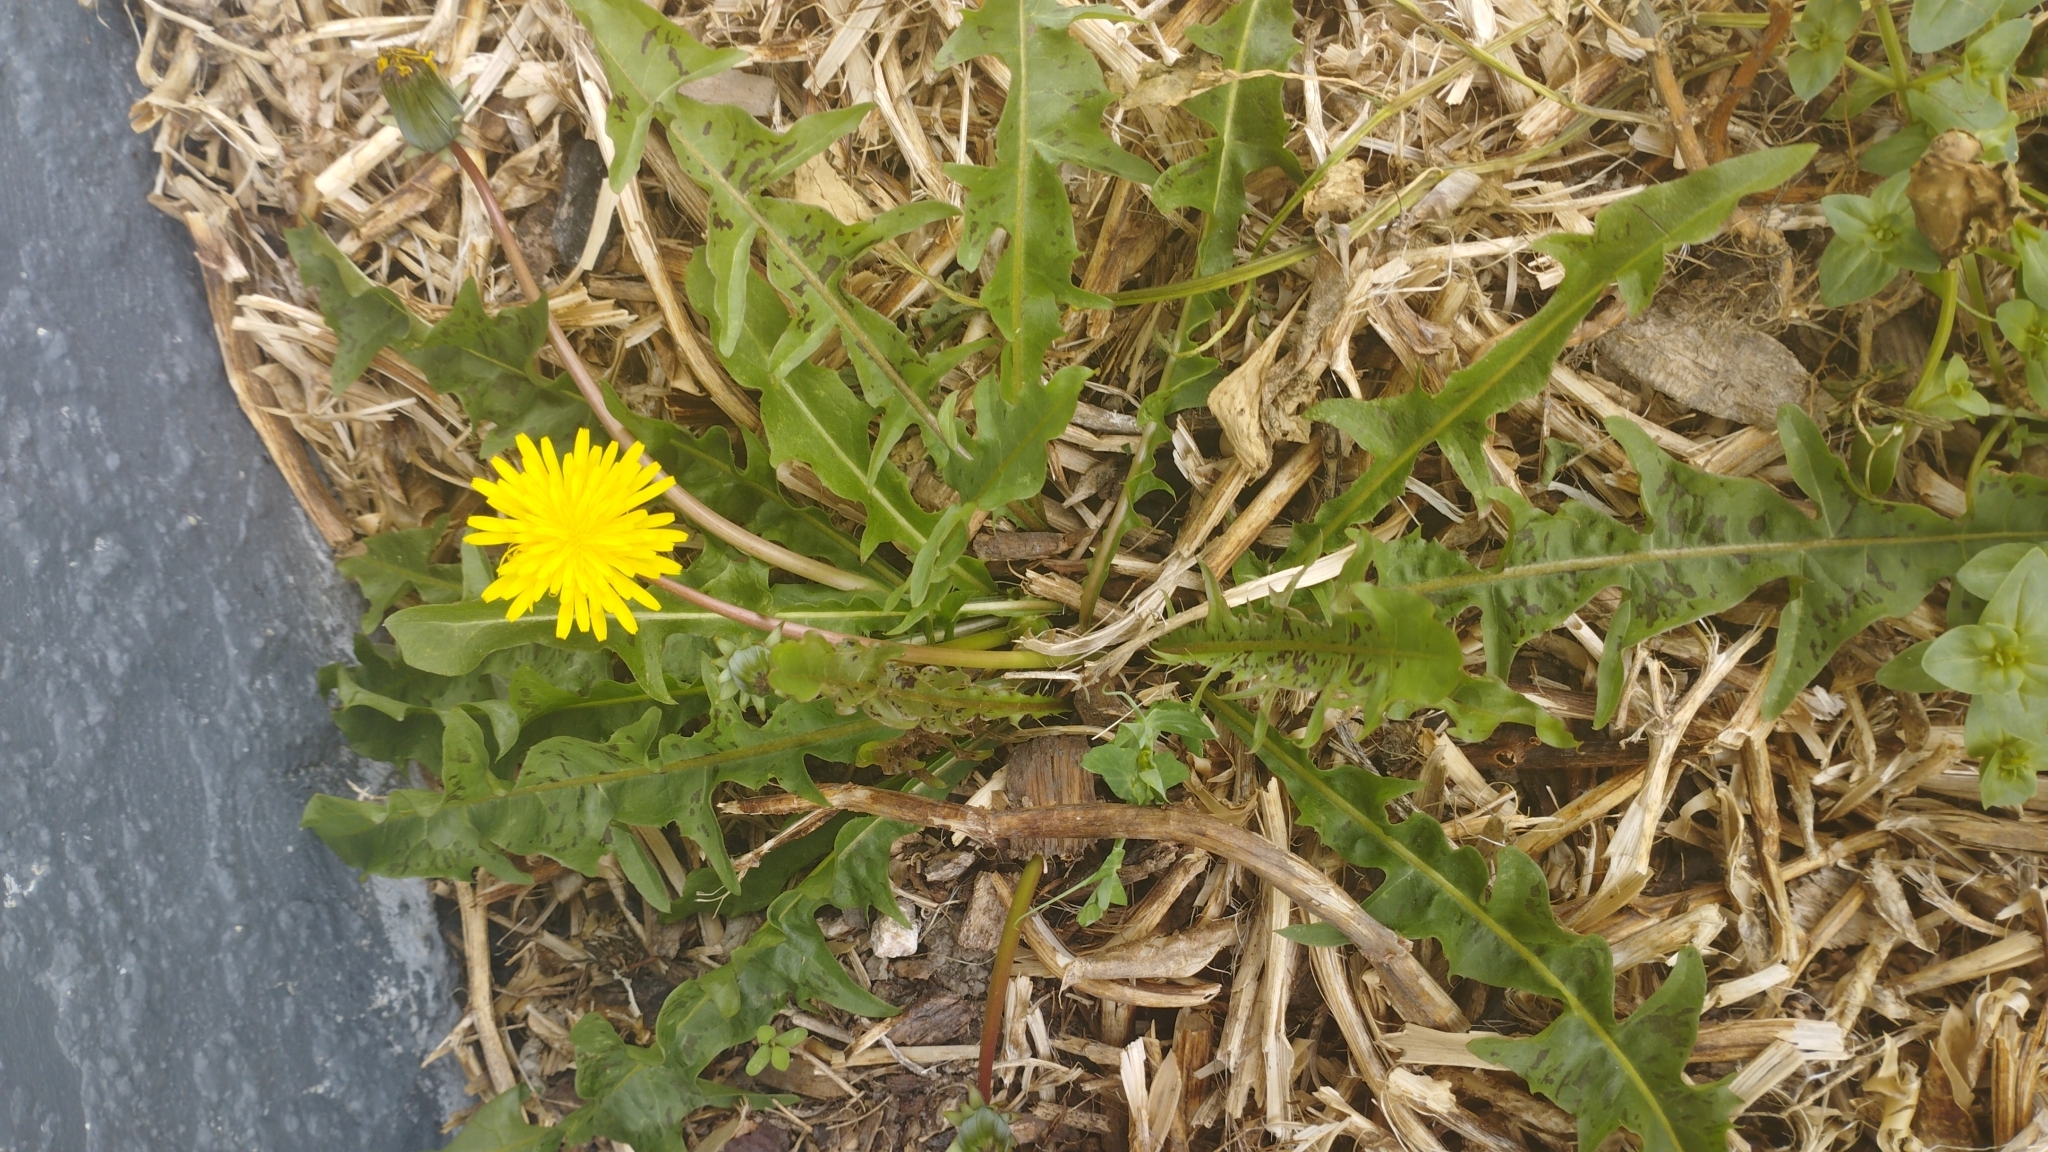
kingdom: Plantae
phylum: Tracheophyta
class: Magnoliopsida
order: Asterales
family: Asteraceae
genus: Taraxacum
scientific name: Taraxacum officinale
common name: Common dandelion
